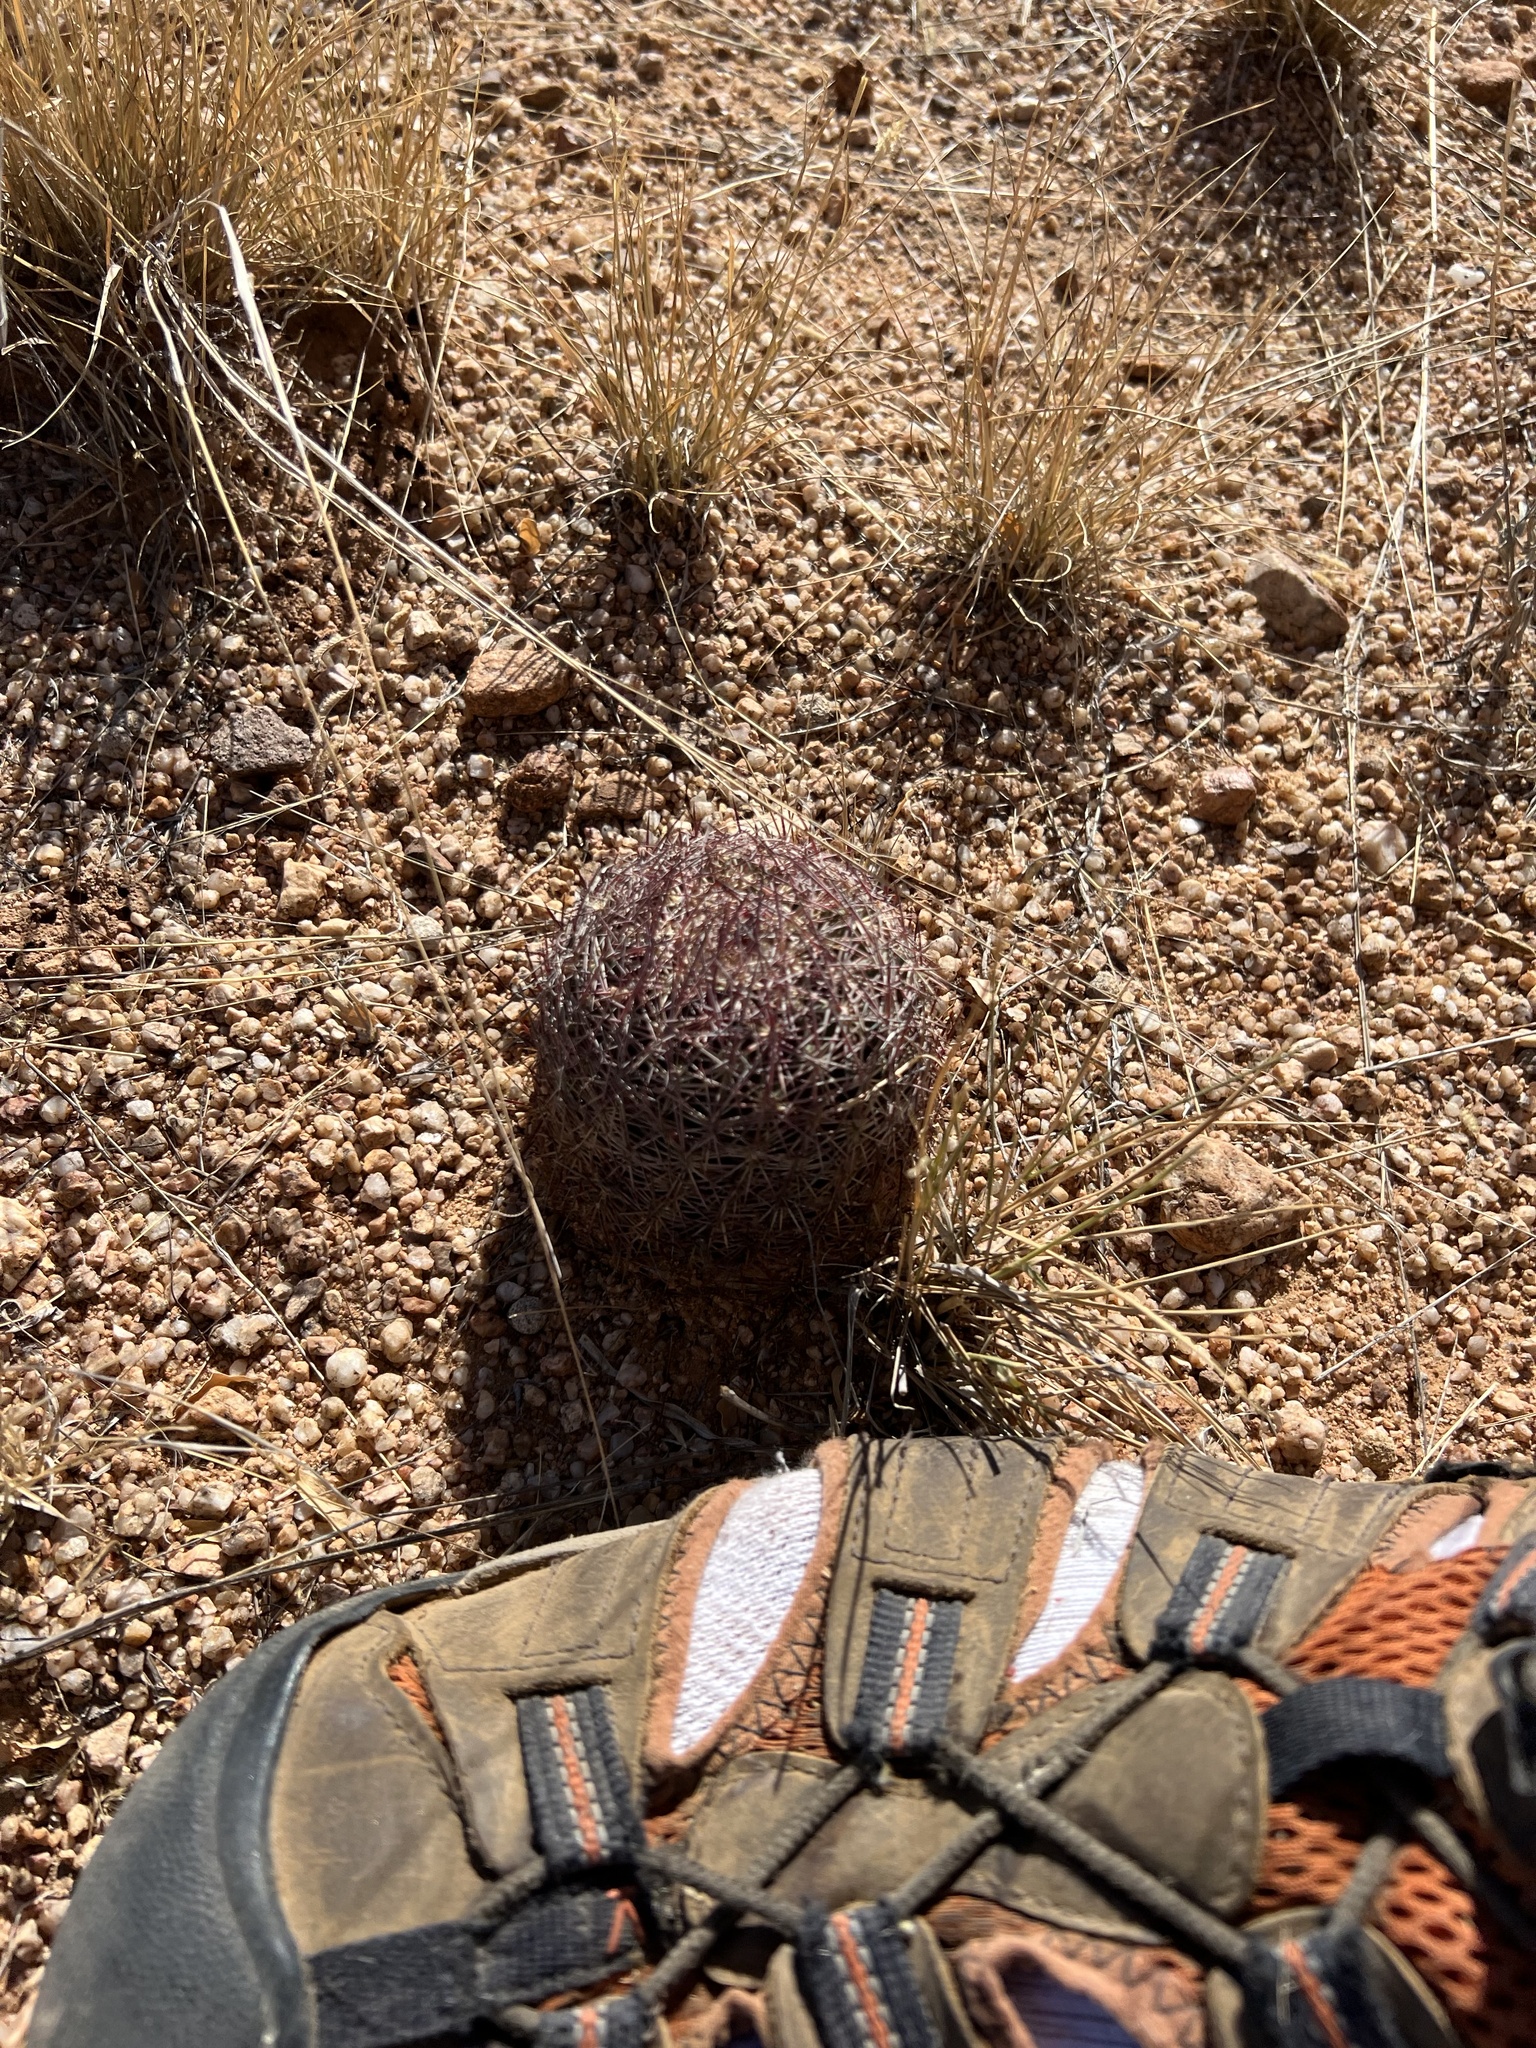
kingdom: Plantae
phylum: Tracheophyta
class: Magnoliopsida
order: Caryophyllales
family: Cactaceae
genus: Sclerocactus
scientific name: Sclerocactus johnsonii
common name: Eight-spine fishhook cactus
